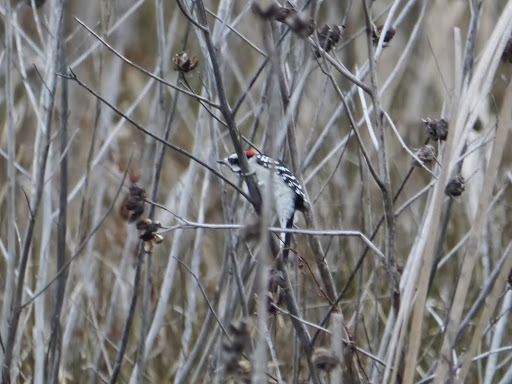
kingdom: Animalia
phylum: Chordata
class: Aves
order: Piciformes
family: Picidae
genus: Dryobates
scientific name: Dryobates pubescens
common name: Downy woodpecker
